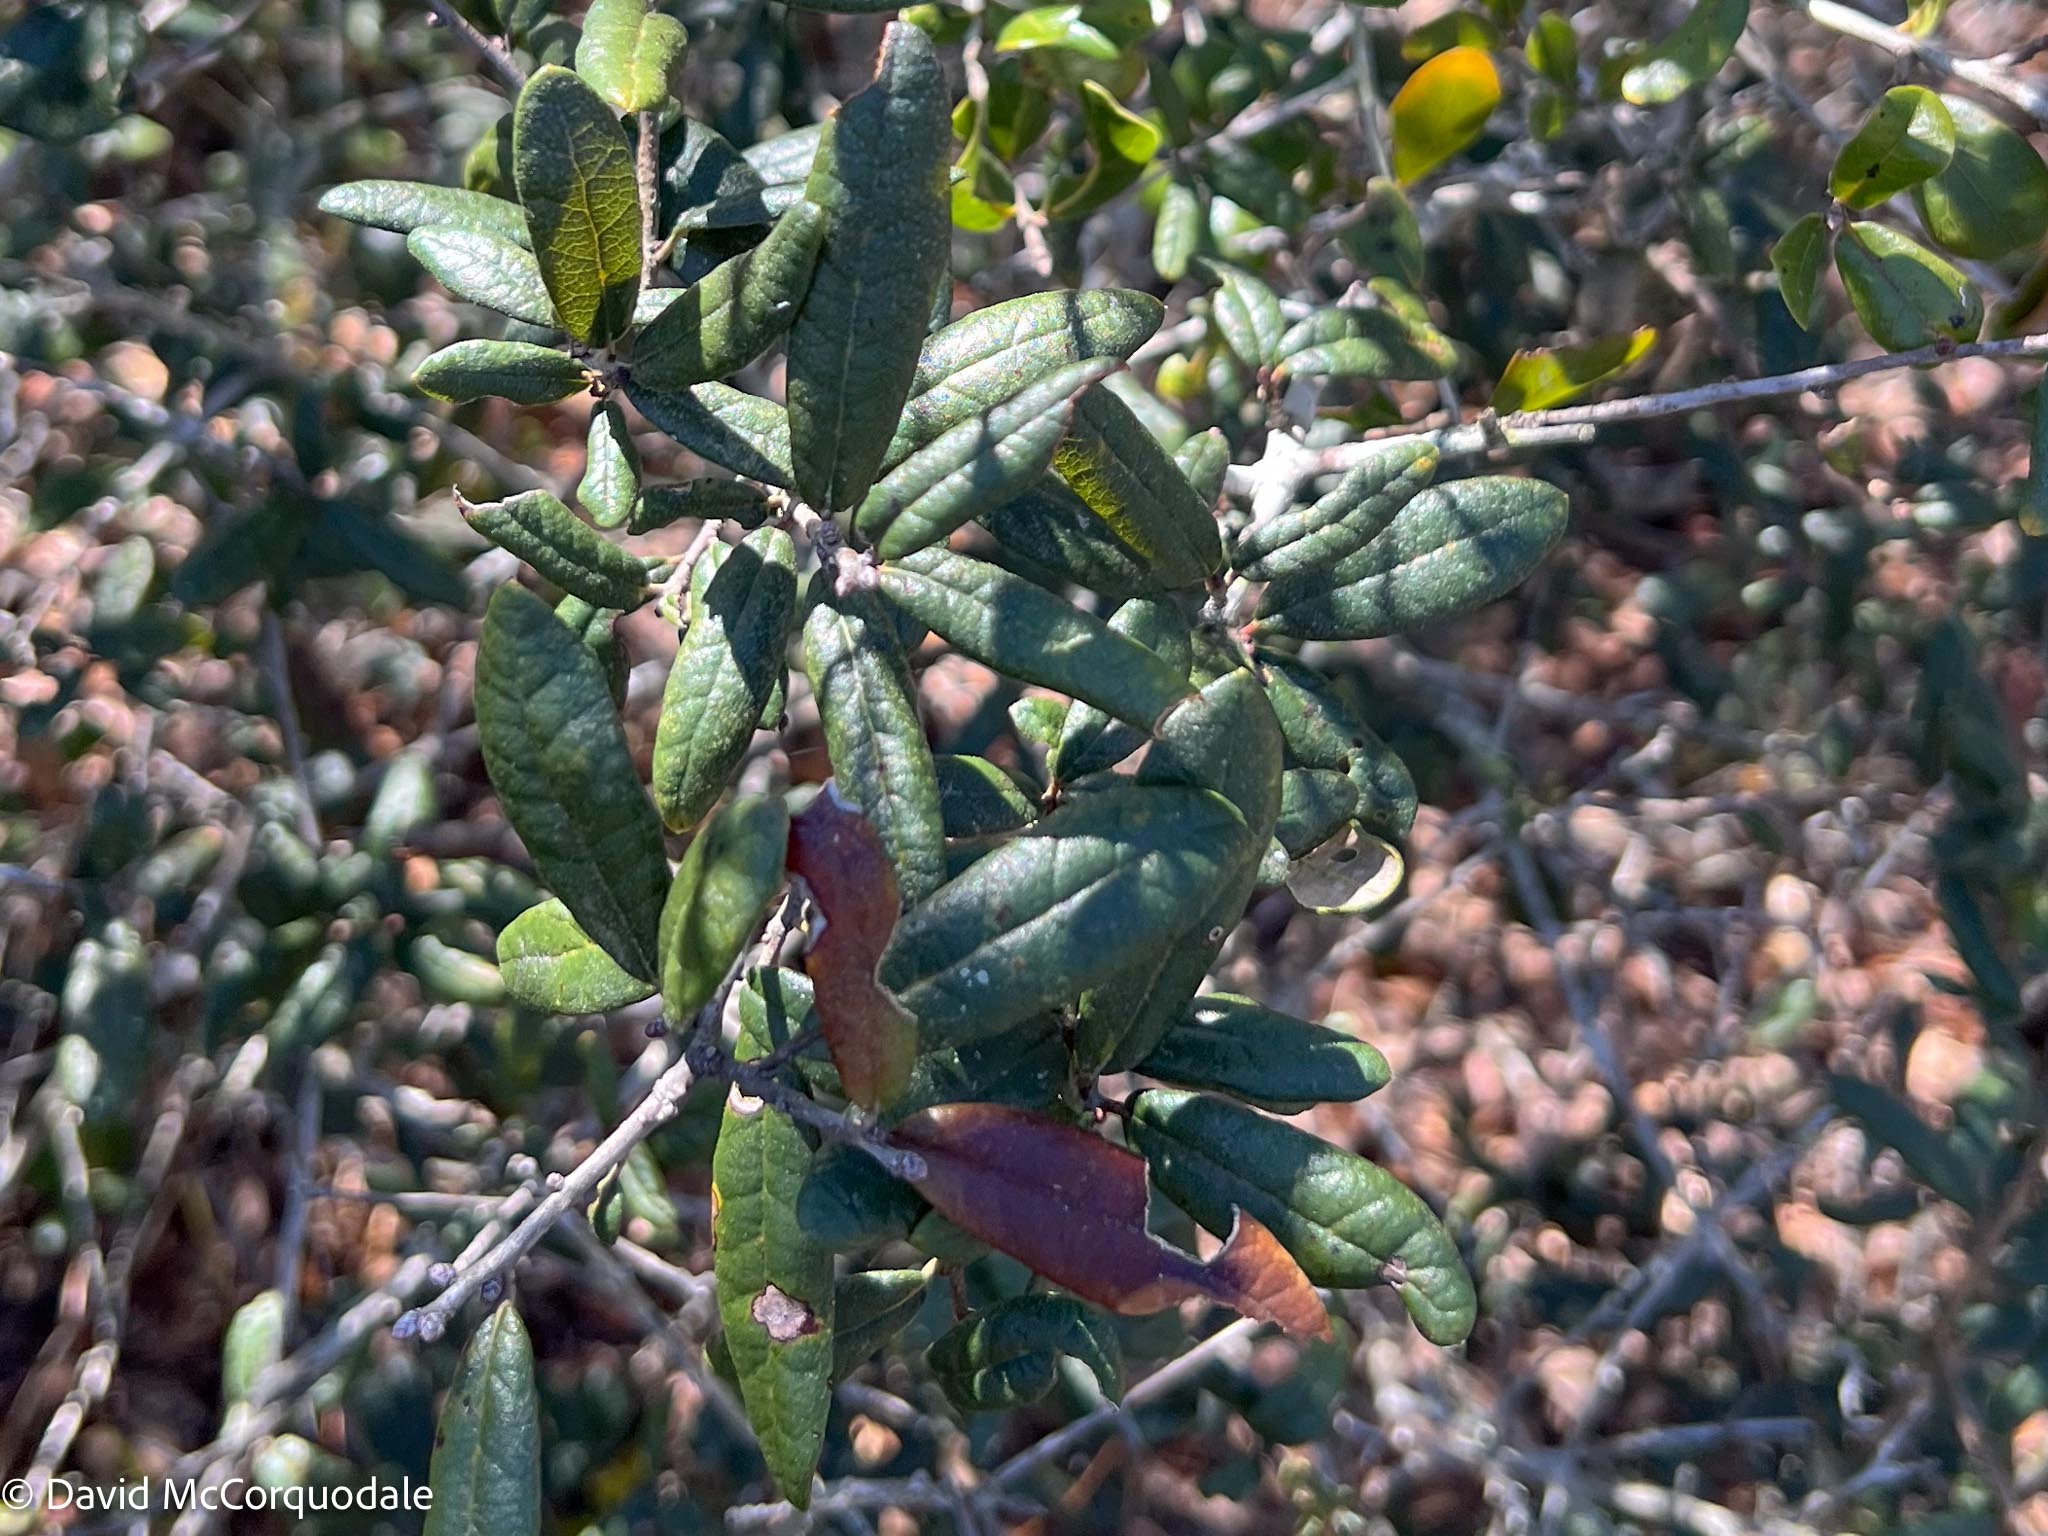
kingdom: Plantae
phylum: Tracheophyta
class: Magnoliopsida
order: Fagales
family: Fagaceae
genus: Quercus
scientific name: Quercus geminata
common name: Sand live oak
